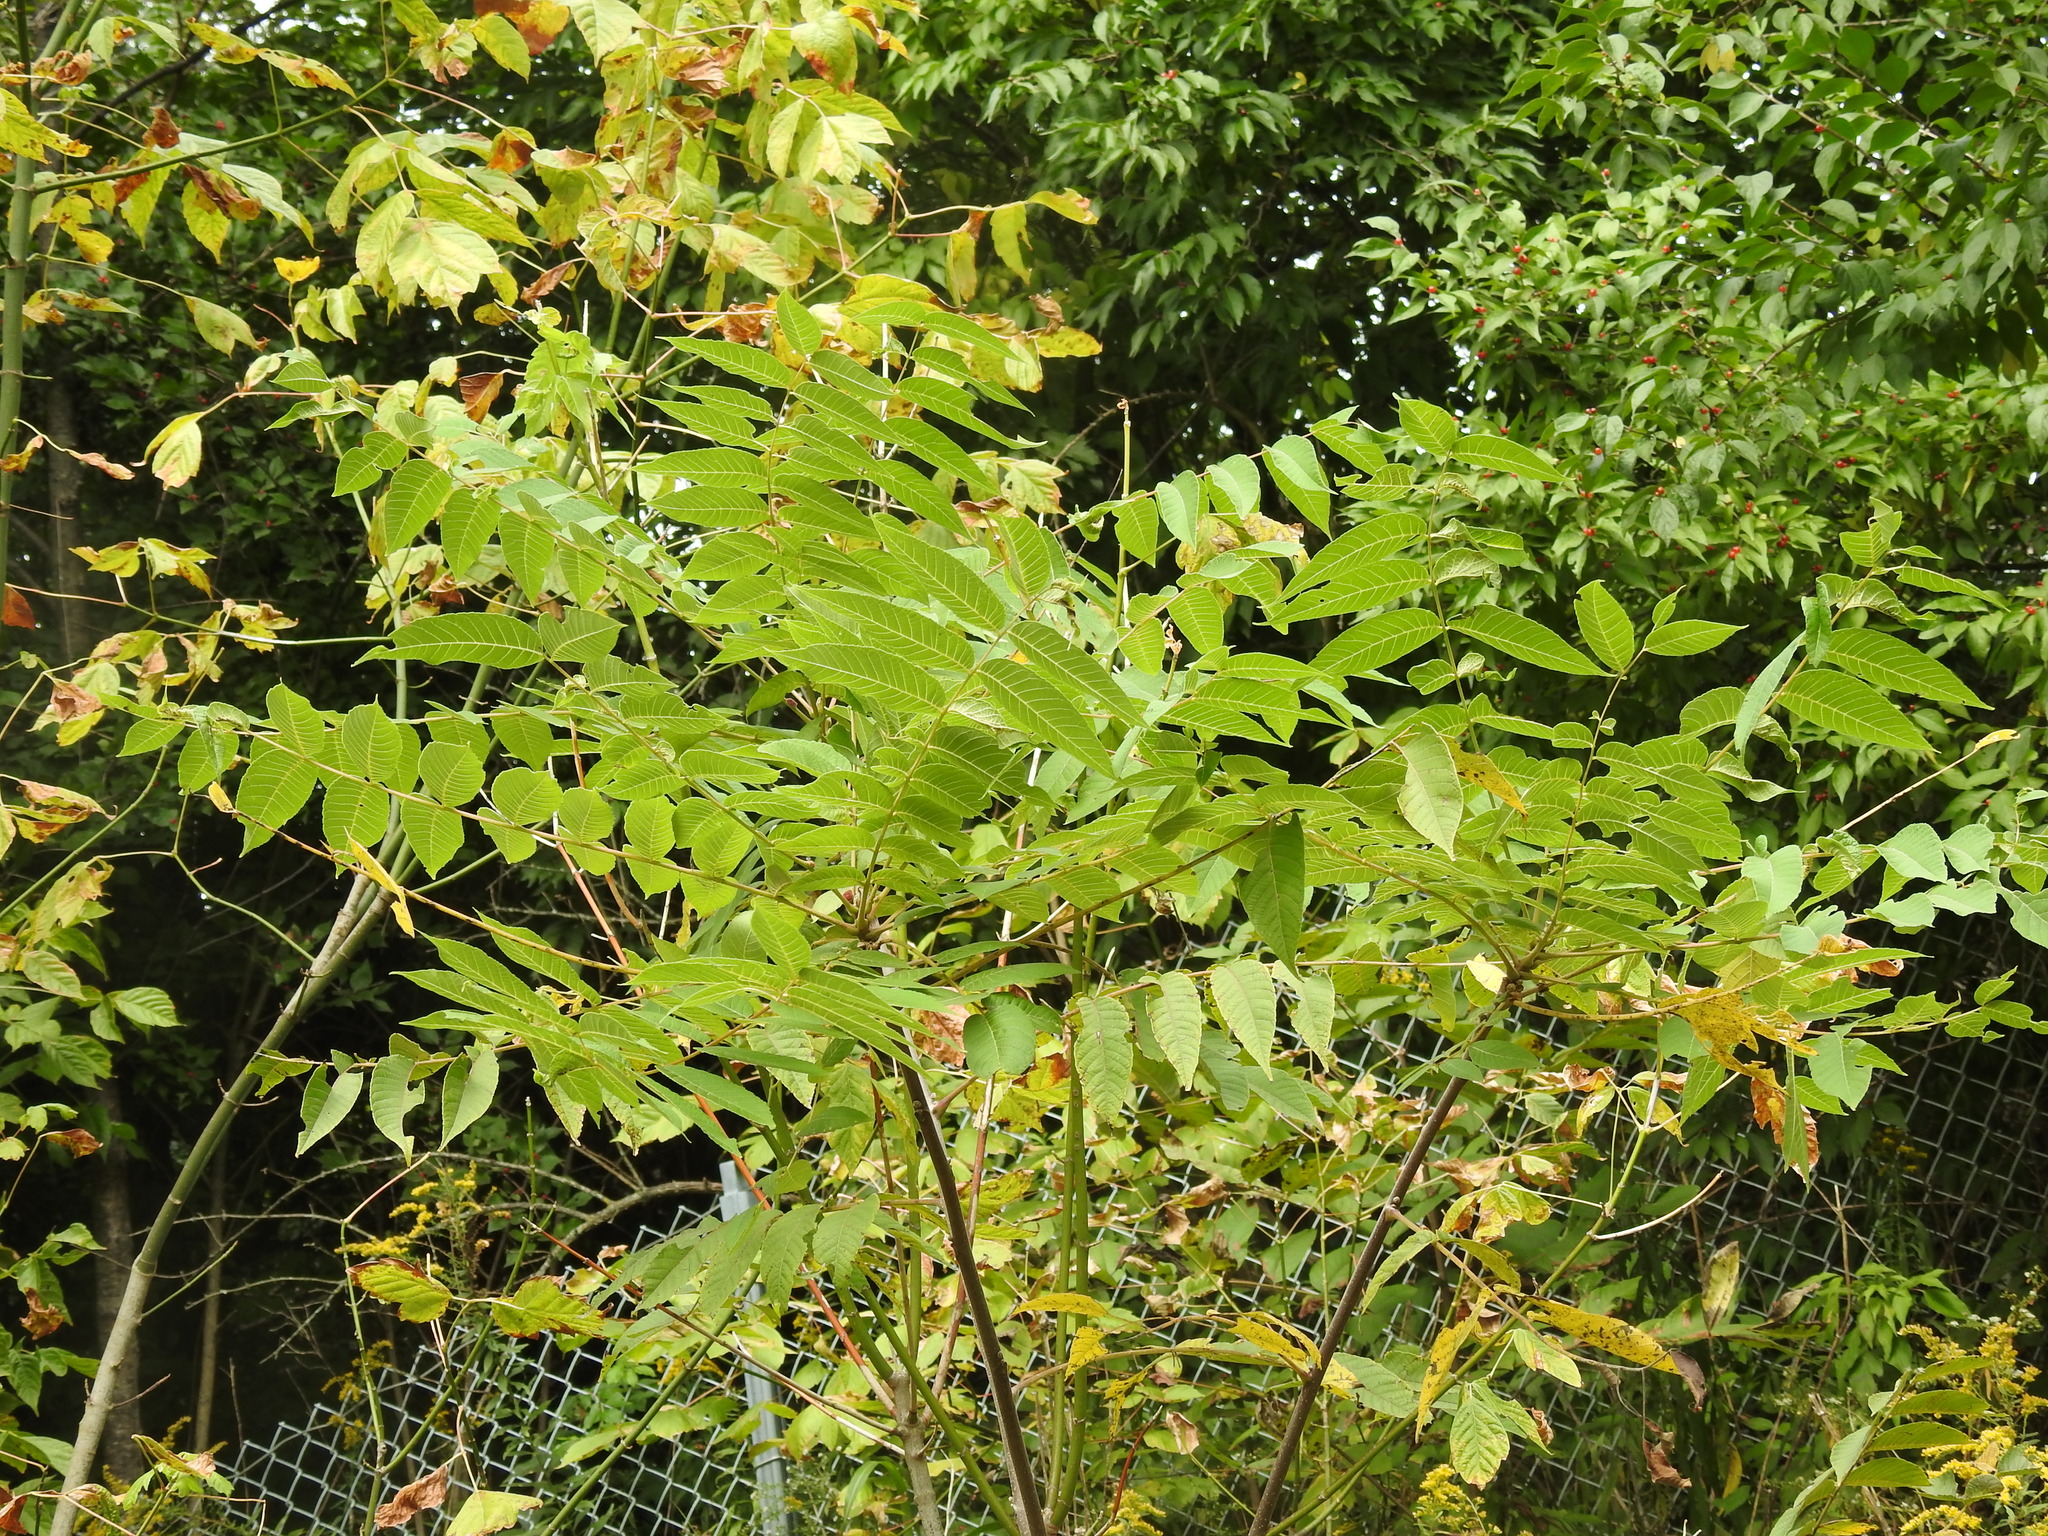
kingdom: Plantae
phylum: Tracheophyta
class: Magnoliopsida
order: Fagales
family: Juglandaceae
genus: Juglans
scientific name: Juglans nigra
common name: Black walnut
